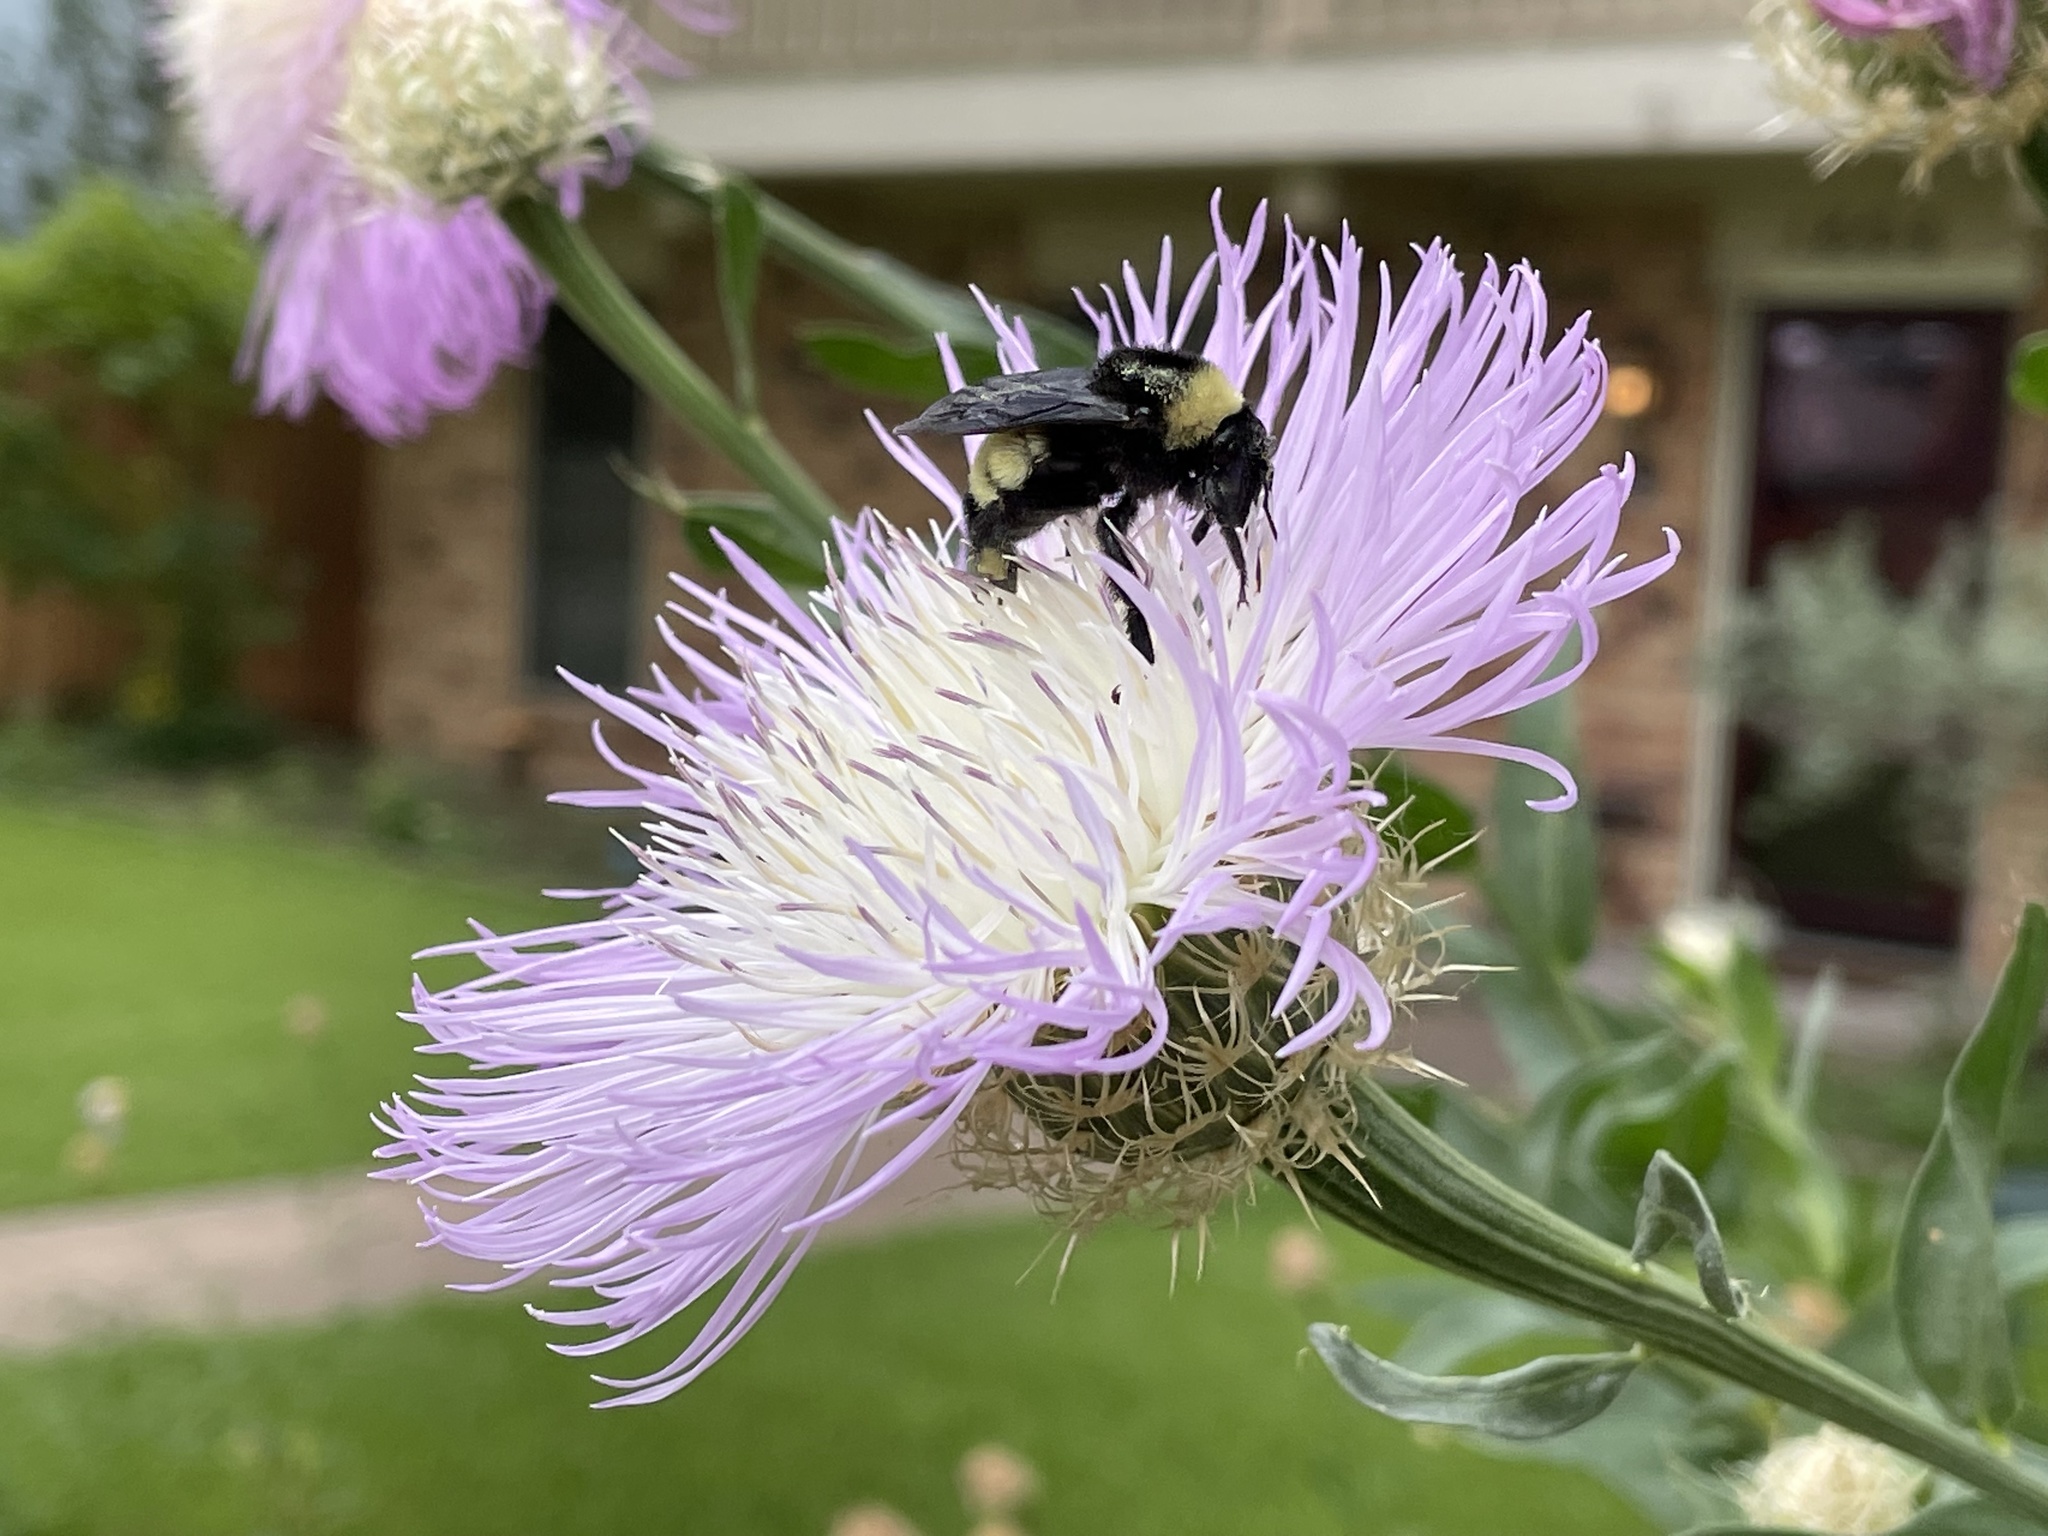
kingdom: Animalia
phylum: Arthropoda
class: Insecta
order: Hymenoptera
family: Apidae
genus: Bombus
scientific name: Bombus pensylvanicus
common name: Bumble bee
